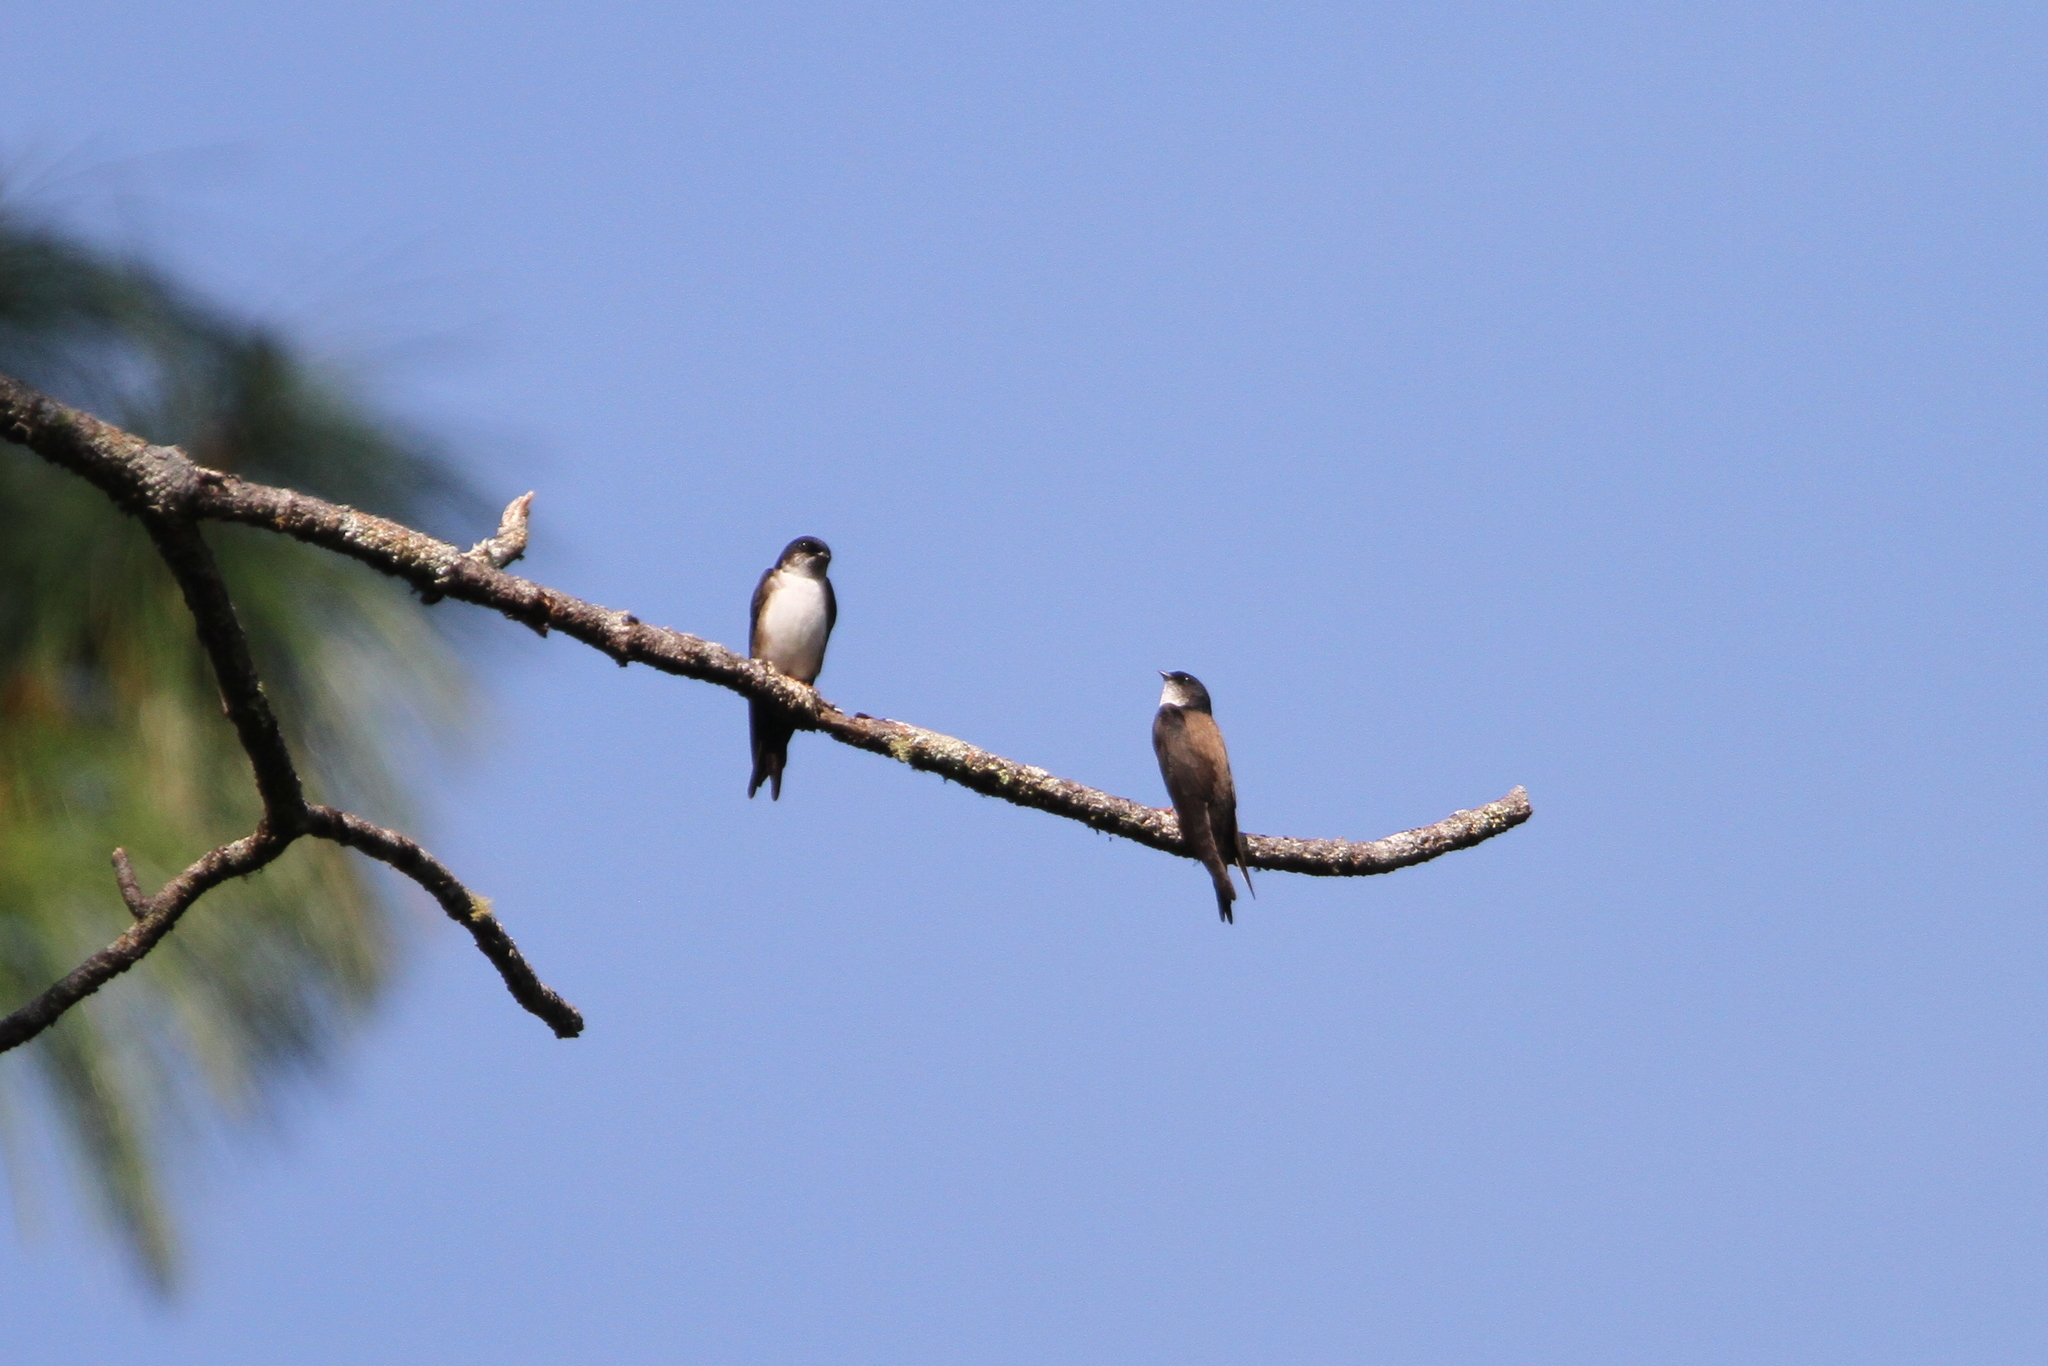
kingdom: Animalia
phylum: Chordata
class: Aves
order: Passeriformes
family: Hirundinidae
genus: Notiochelidon
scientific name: Notiochelidon pileata
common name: Black-capped swallow
